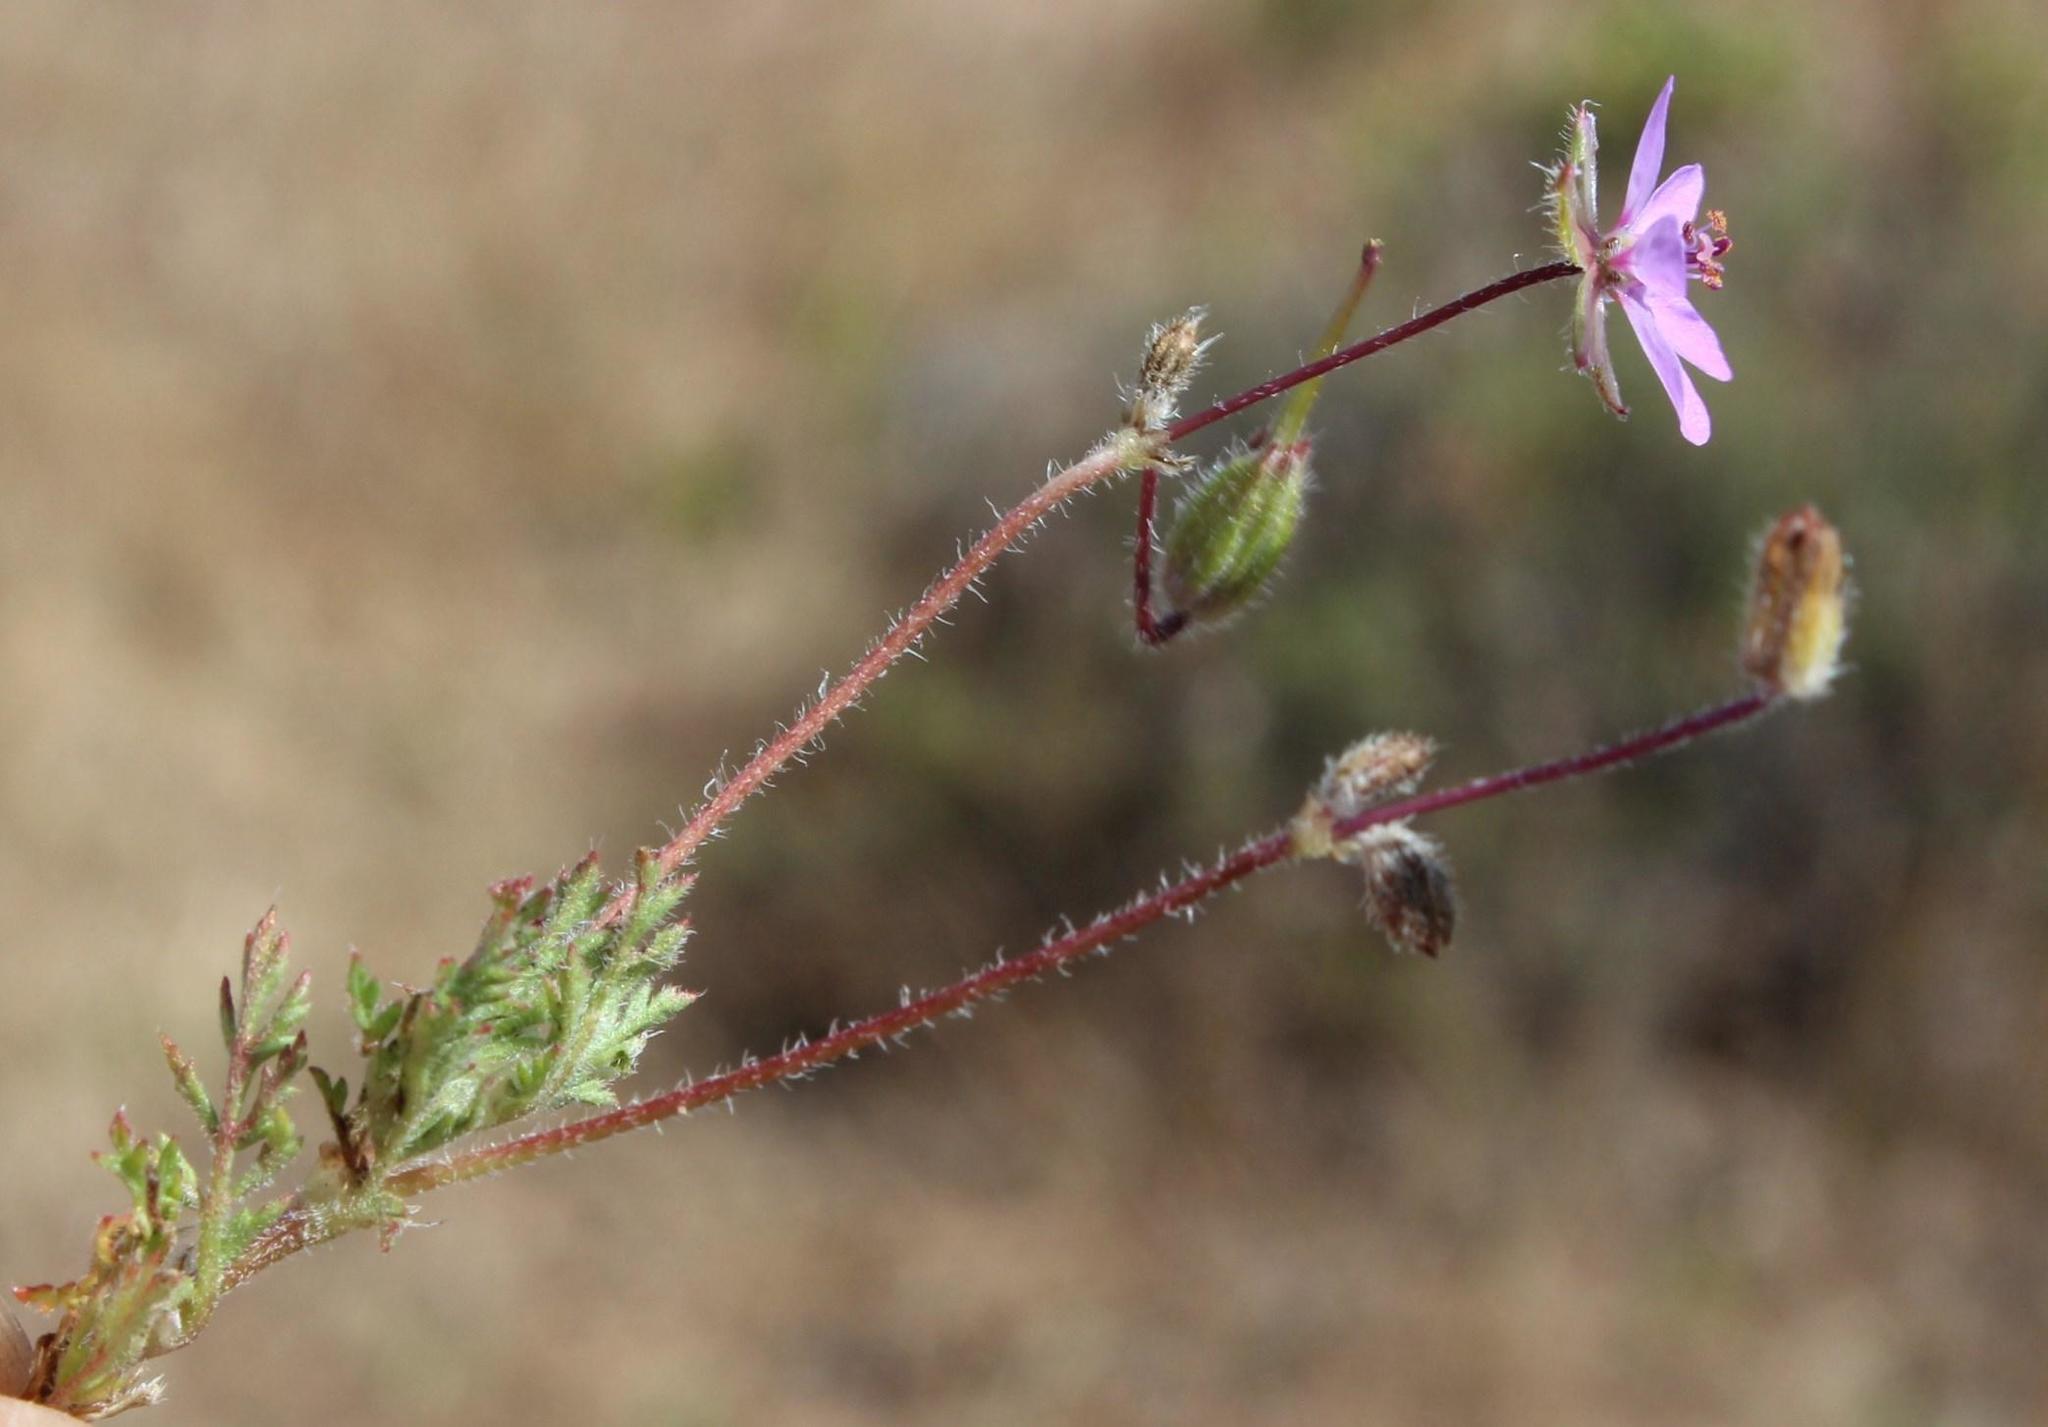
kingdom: Plantae
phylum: Tracheophyta
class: Magnoliopsida
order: Geraniales
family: Geraniaceae
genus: Erodium
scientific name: Erodium cicutarium
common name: Common stork's-bill
